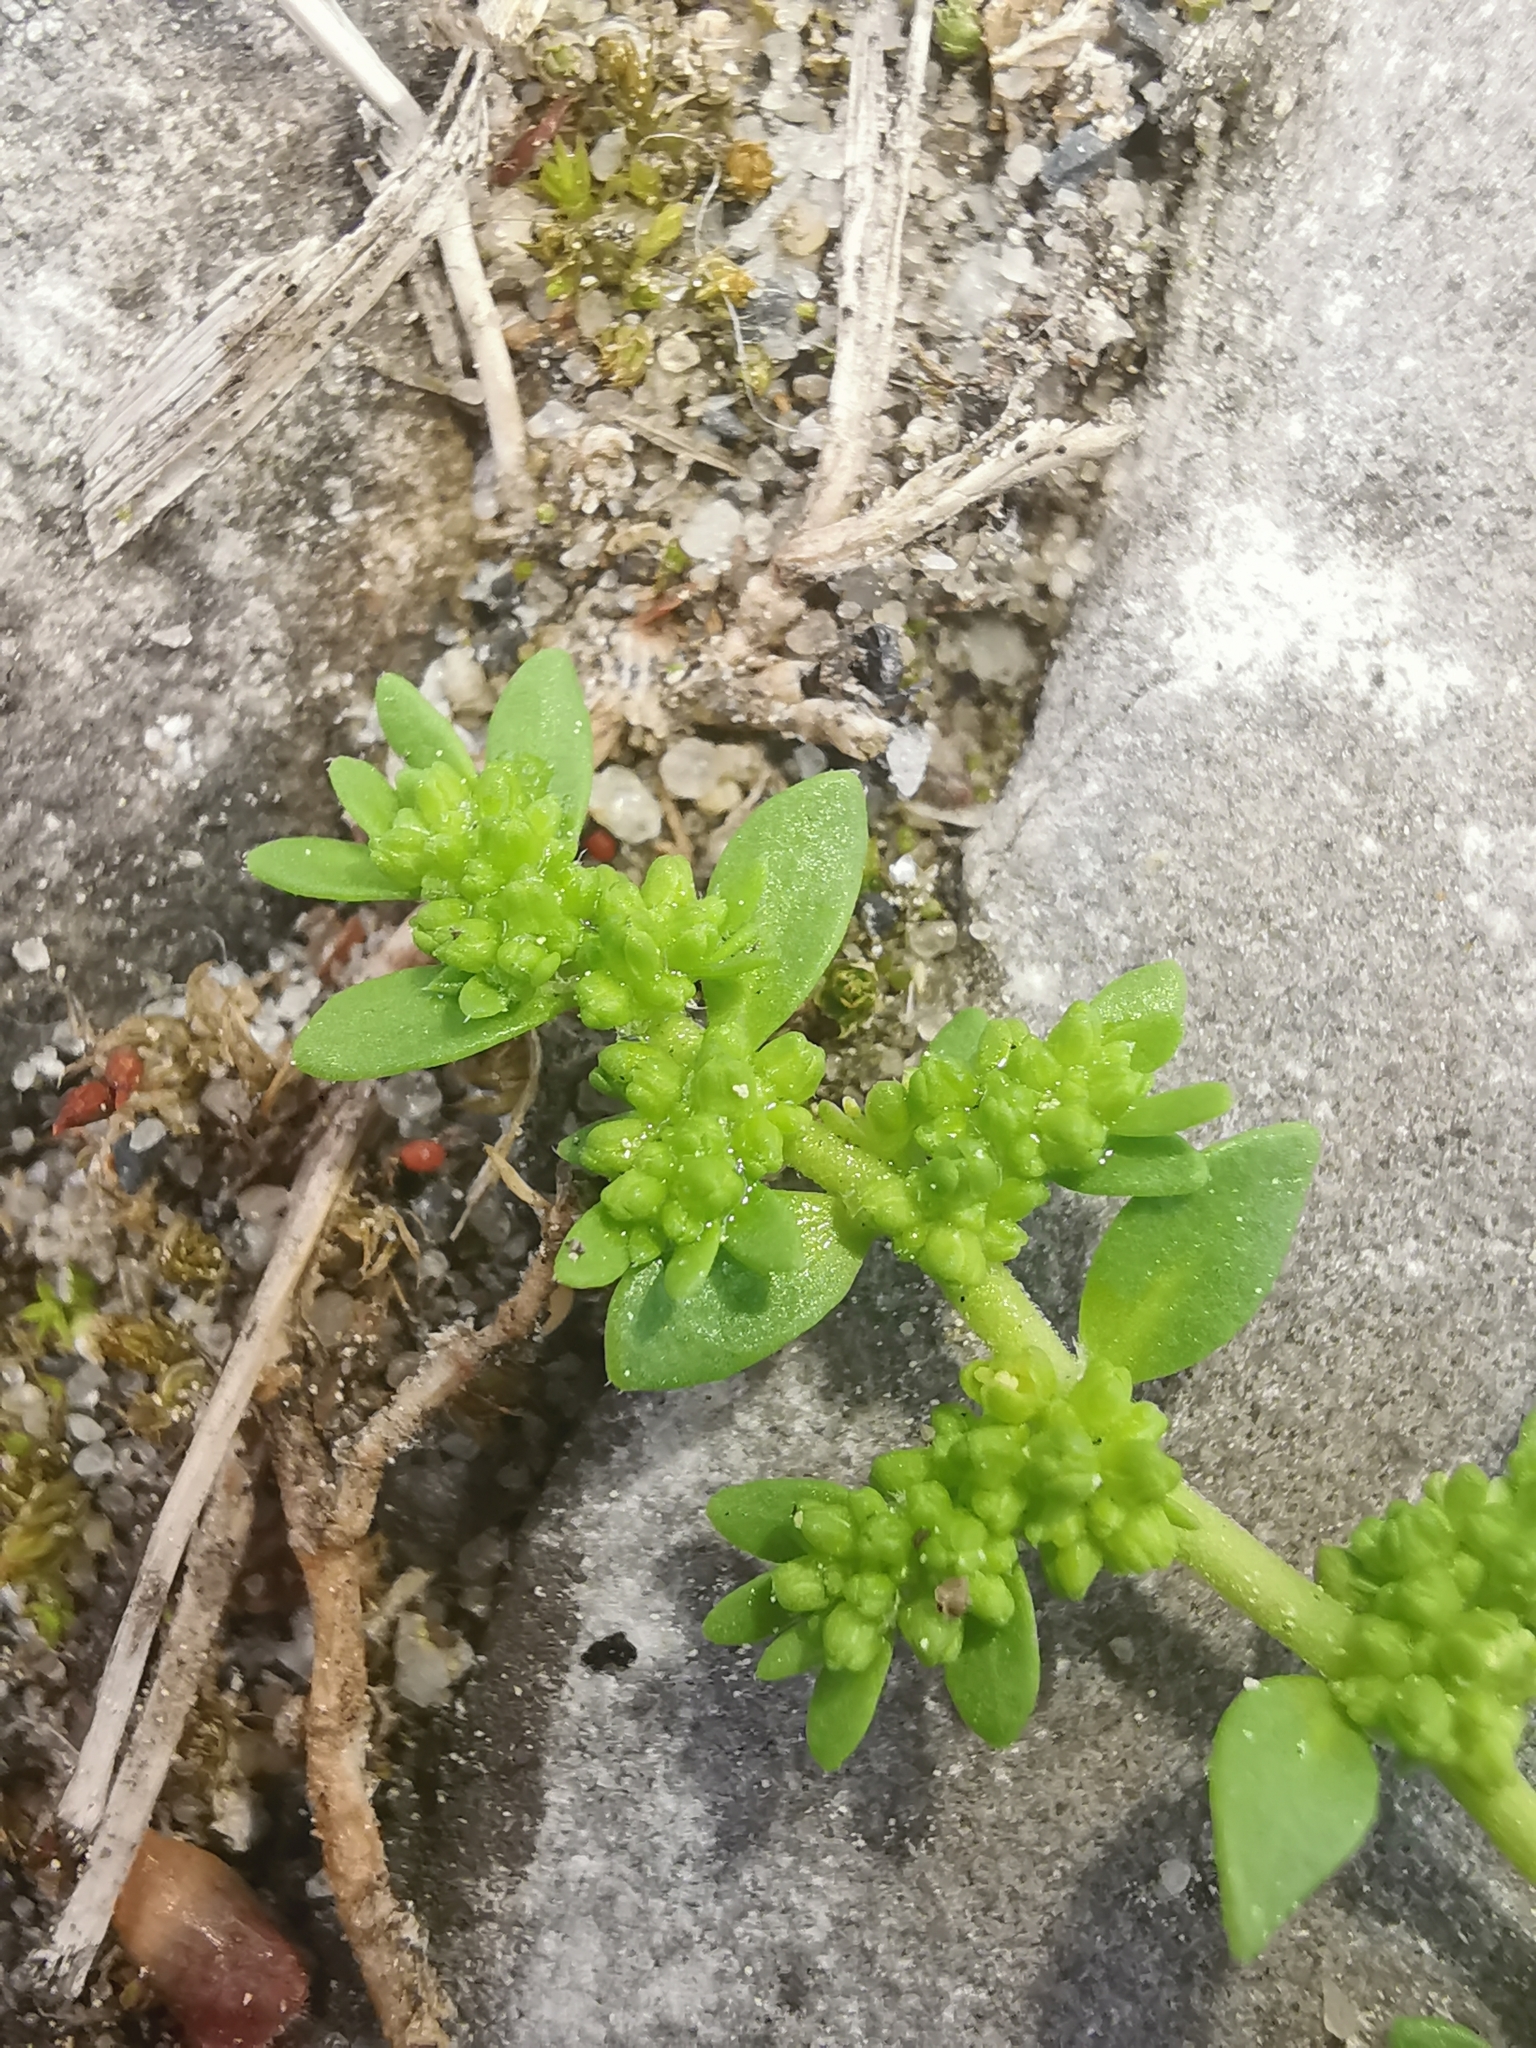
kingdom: Plantae
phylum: Tracheophyta
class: Magnoliopsida
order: Caryophyllales
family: Caryophyllaceae
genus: Herniaria
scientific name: Herniaria glabra
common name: Smooth rupturewort
